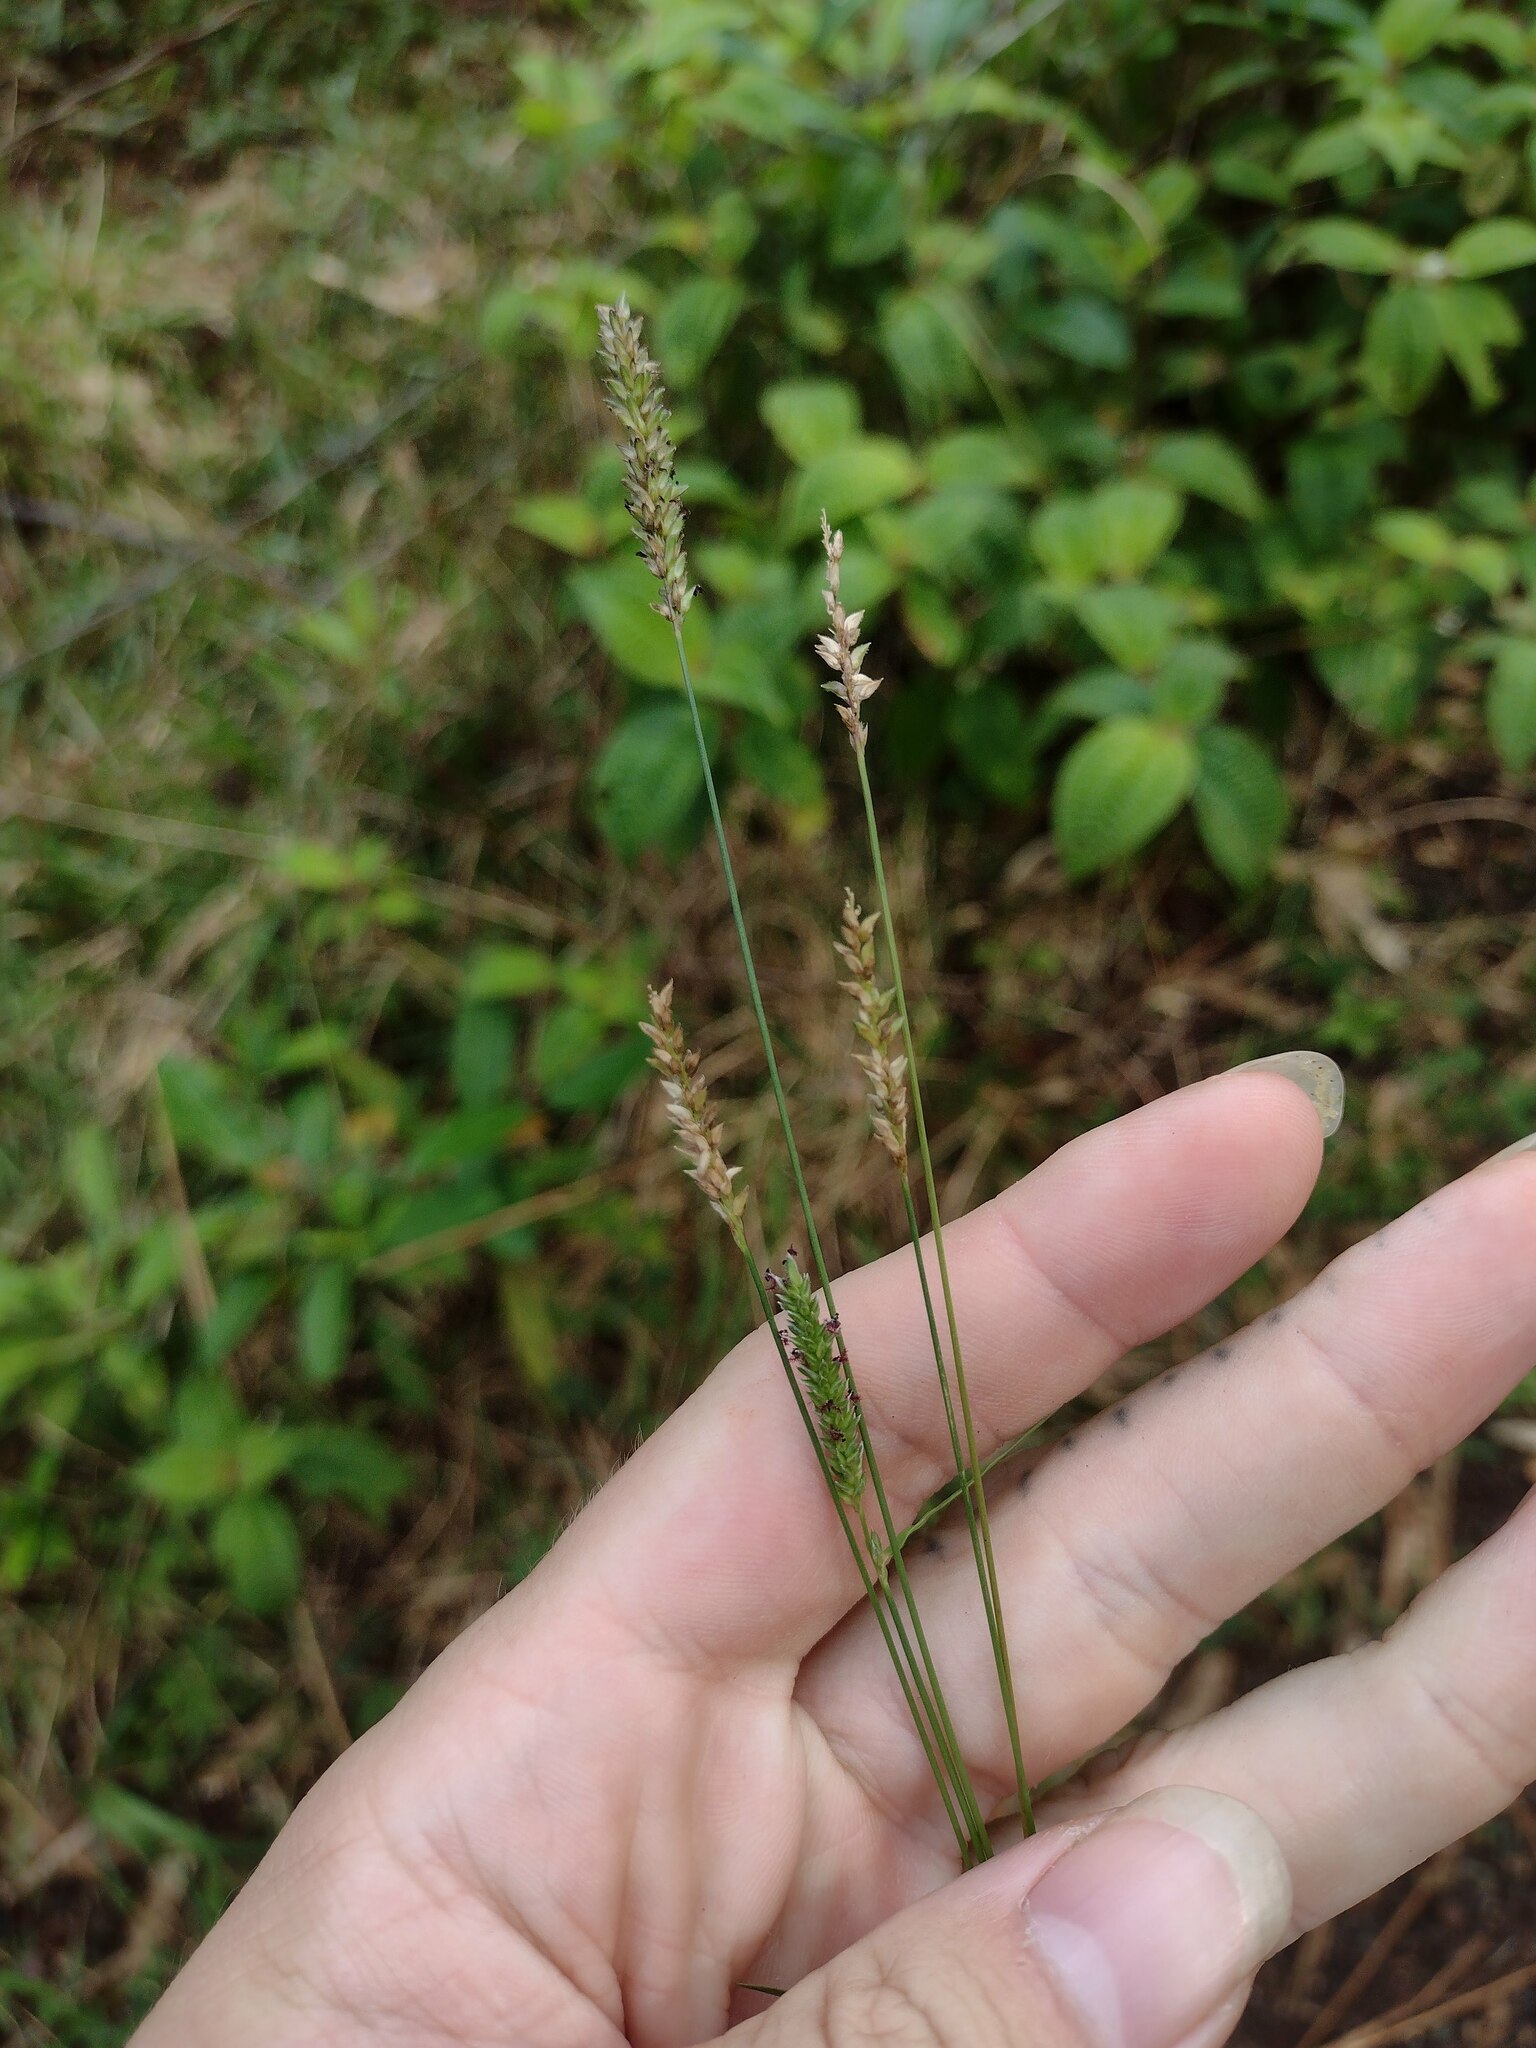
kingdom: Plantae
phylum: Tracheophyta
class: Liliopsida
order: Poales
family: Poaceae
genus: Sacciolepis
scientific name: Sacciolepis indica
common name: Glenwoodgrass
